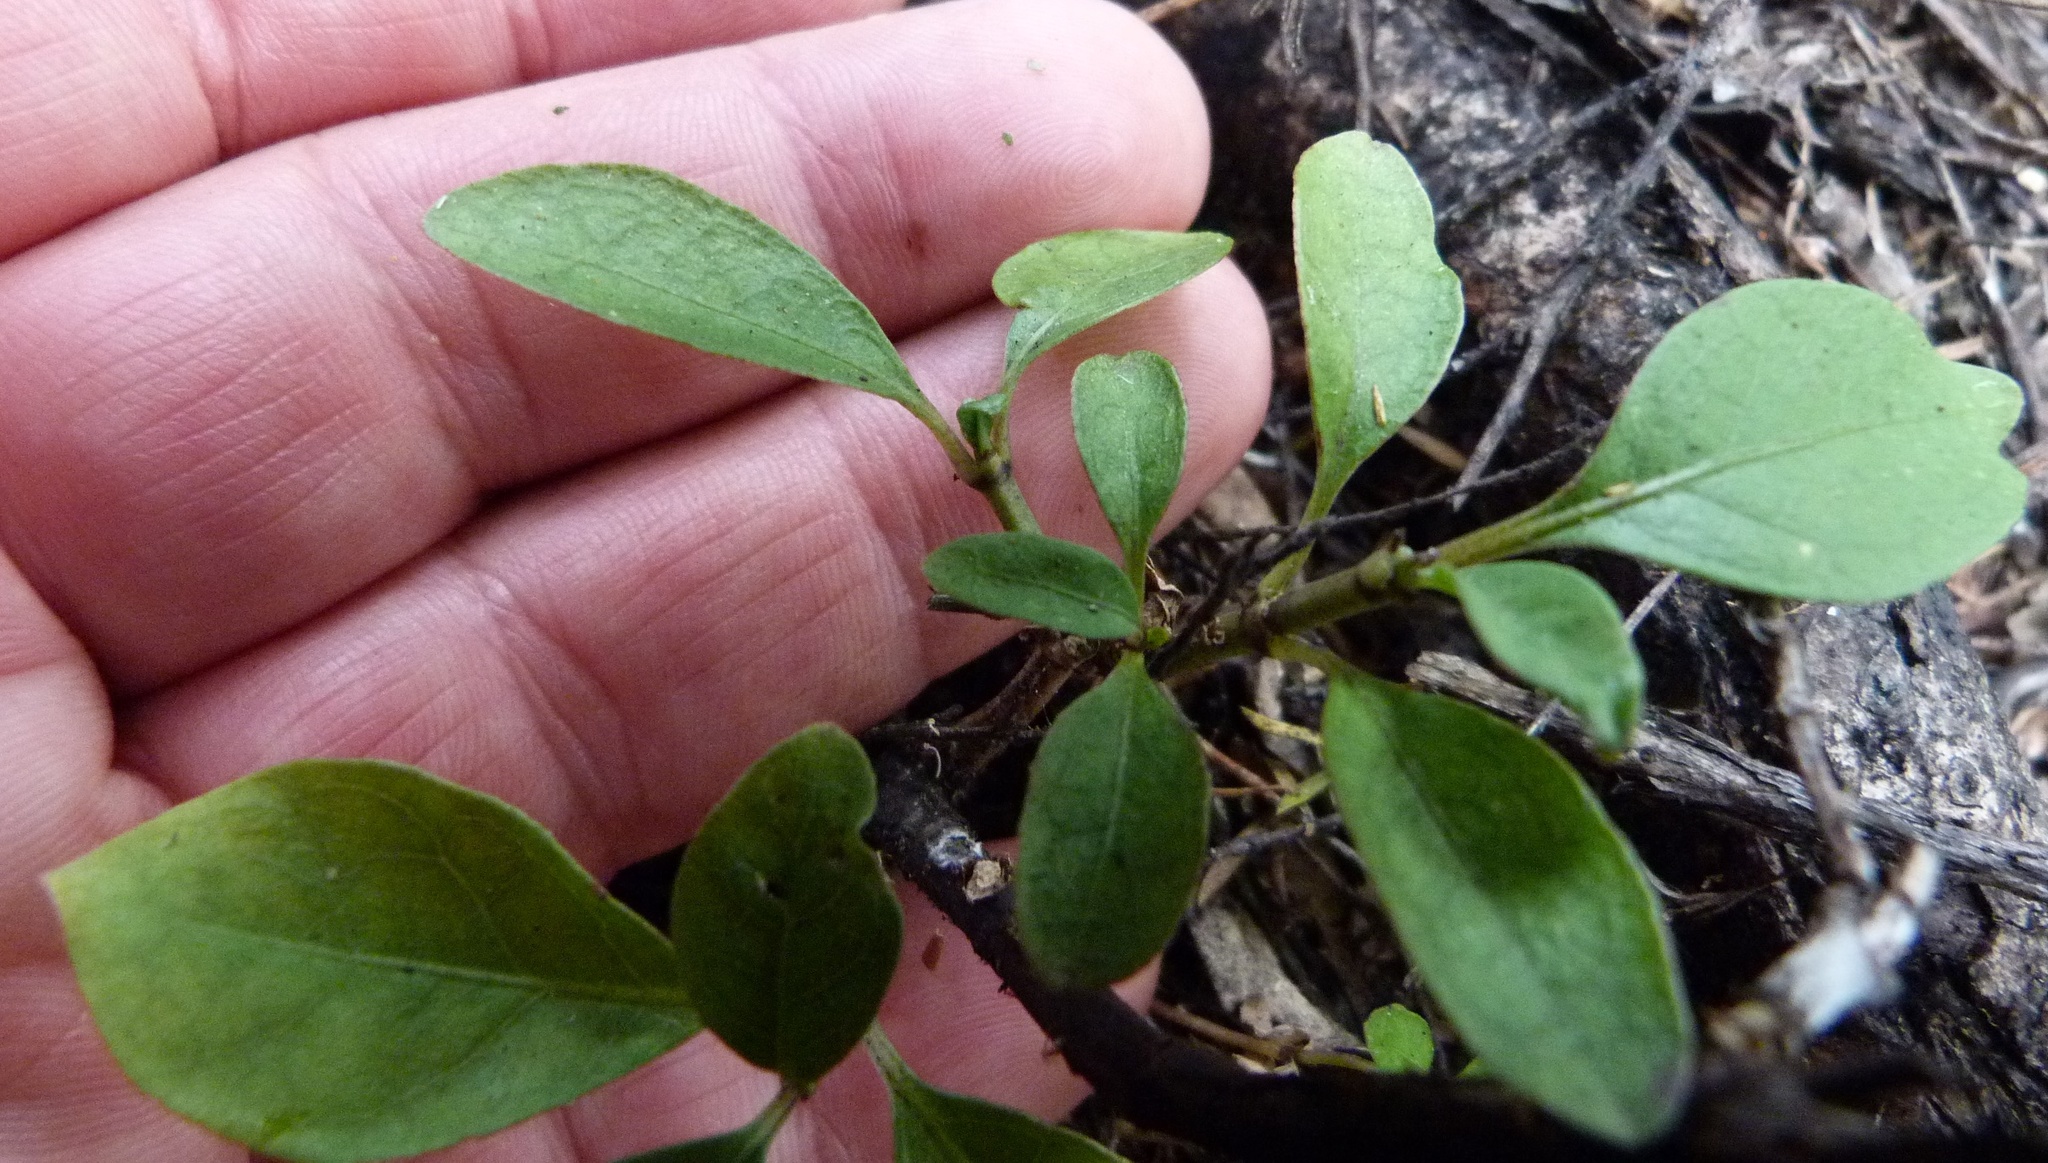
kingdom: Plantae
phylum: Tracheophyta
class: Magnoliopsida
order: Gentianales
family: Rubiaceae
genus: Coprosma
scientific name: Coprosma foetidissima
